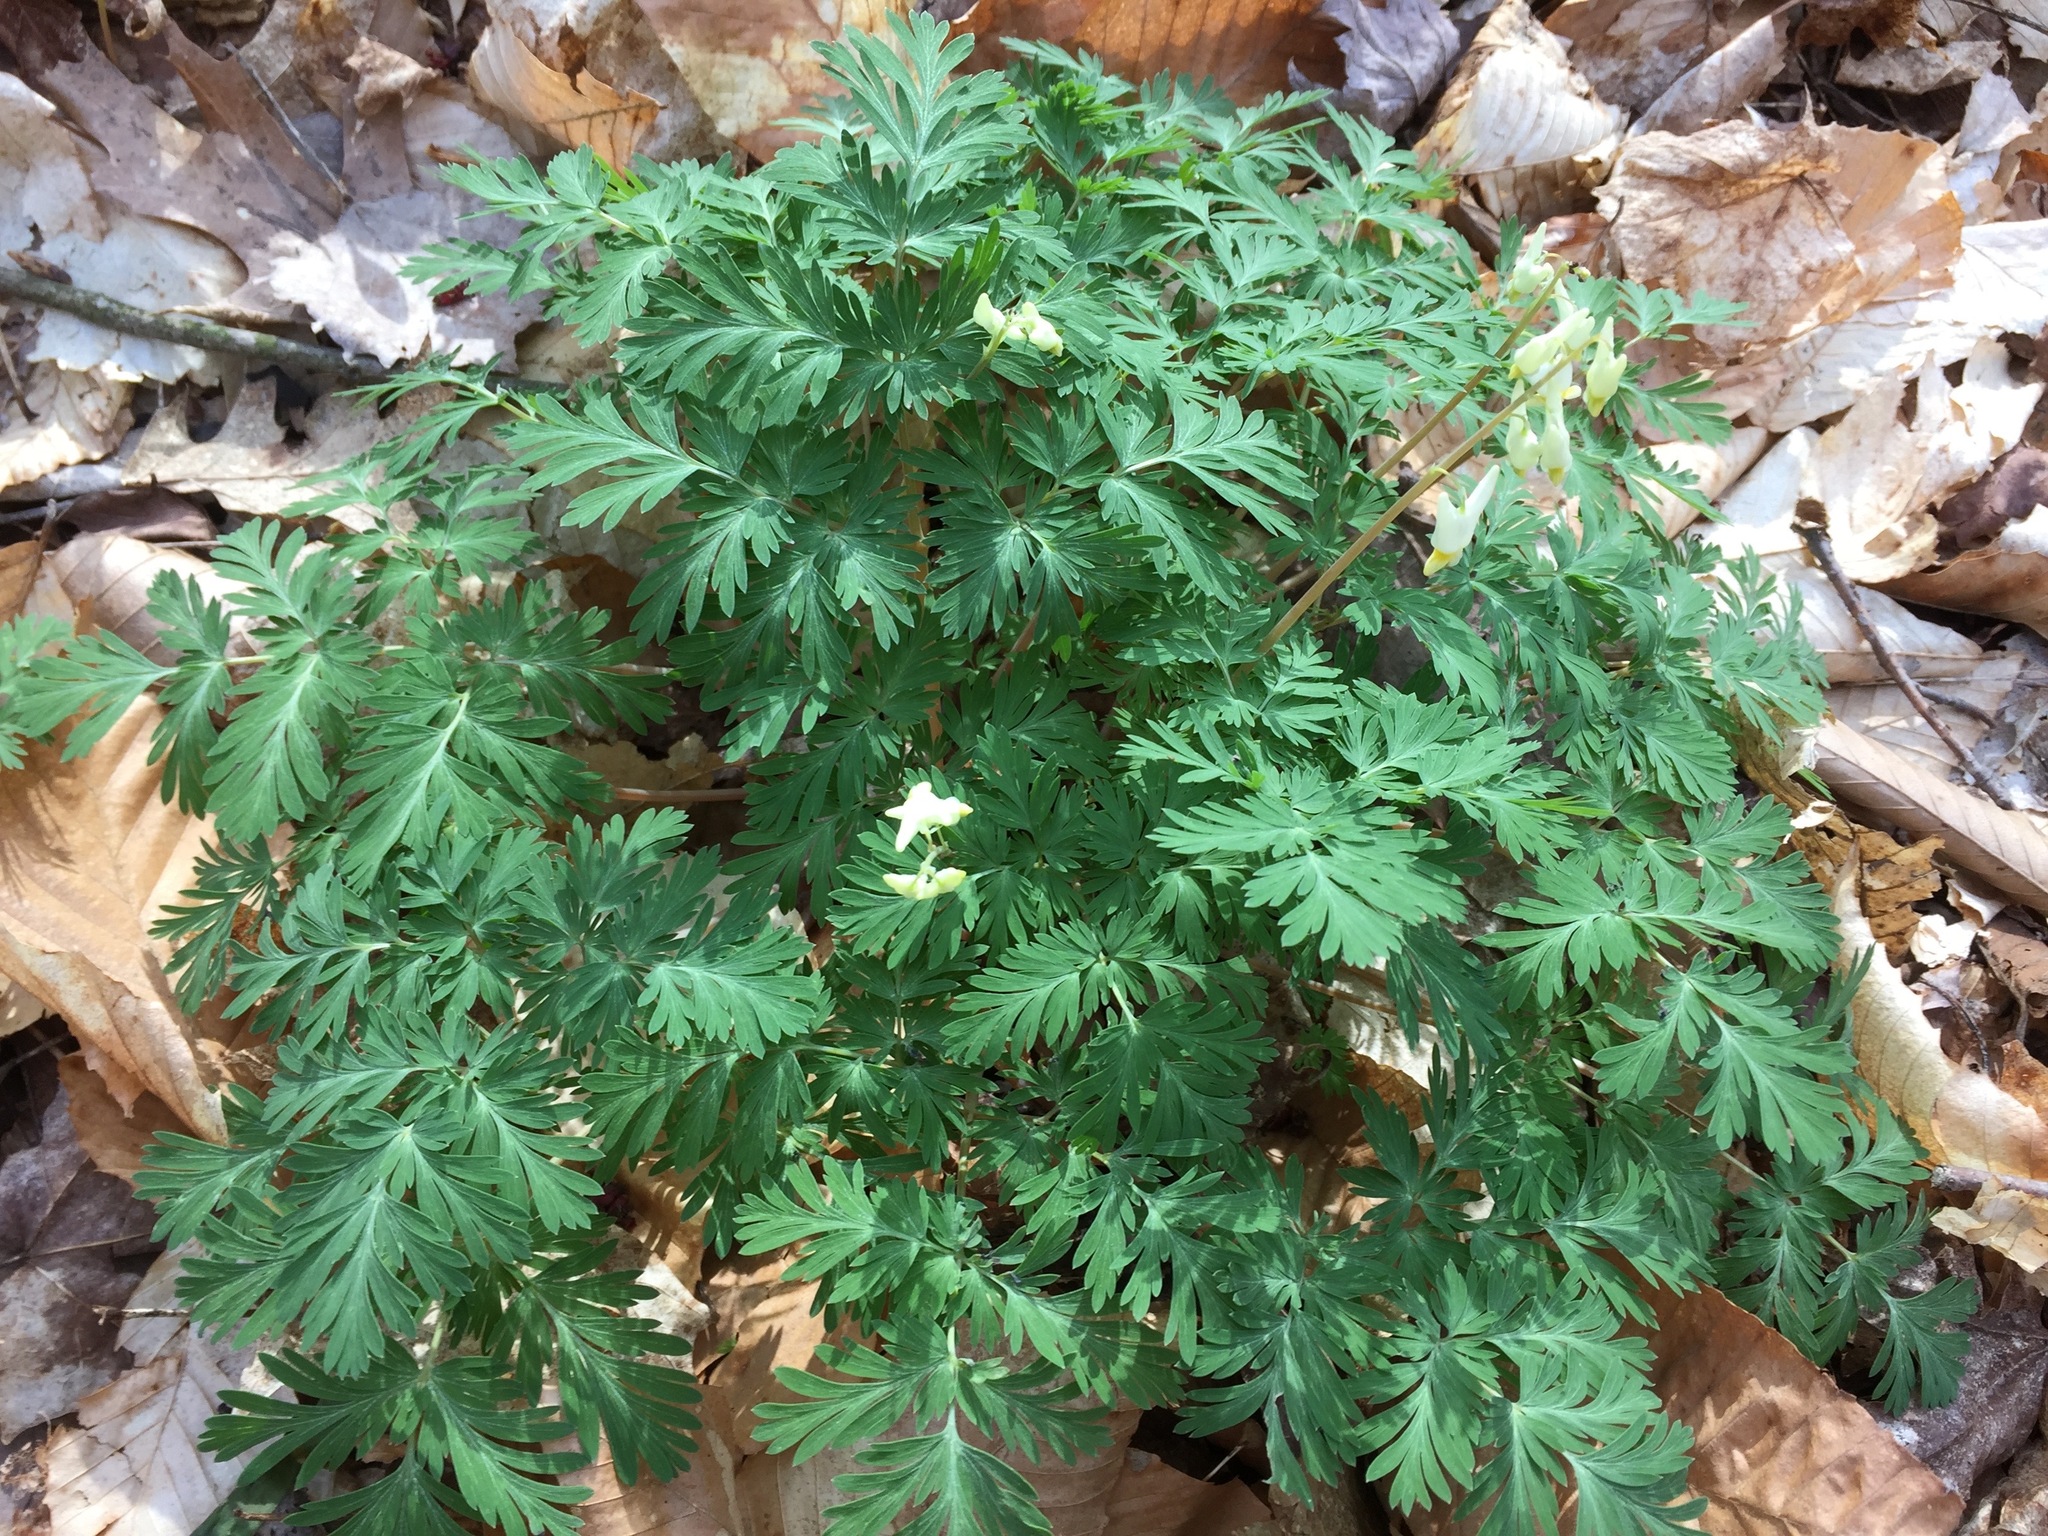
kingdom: Plantae
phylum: Tracheophyta
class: Magnoliopsida
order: Ranunculales
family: Papaveraceae
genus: Dicentra
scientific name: Dicentra cucullaria
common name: Dutchman's breeches
